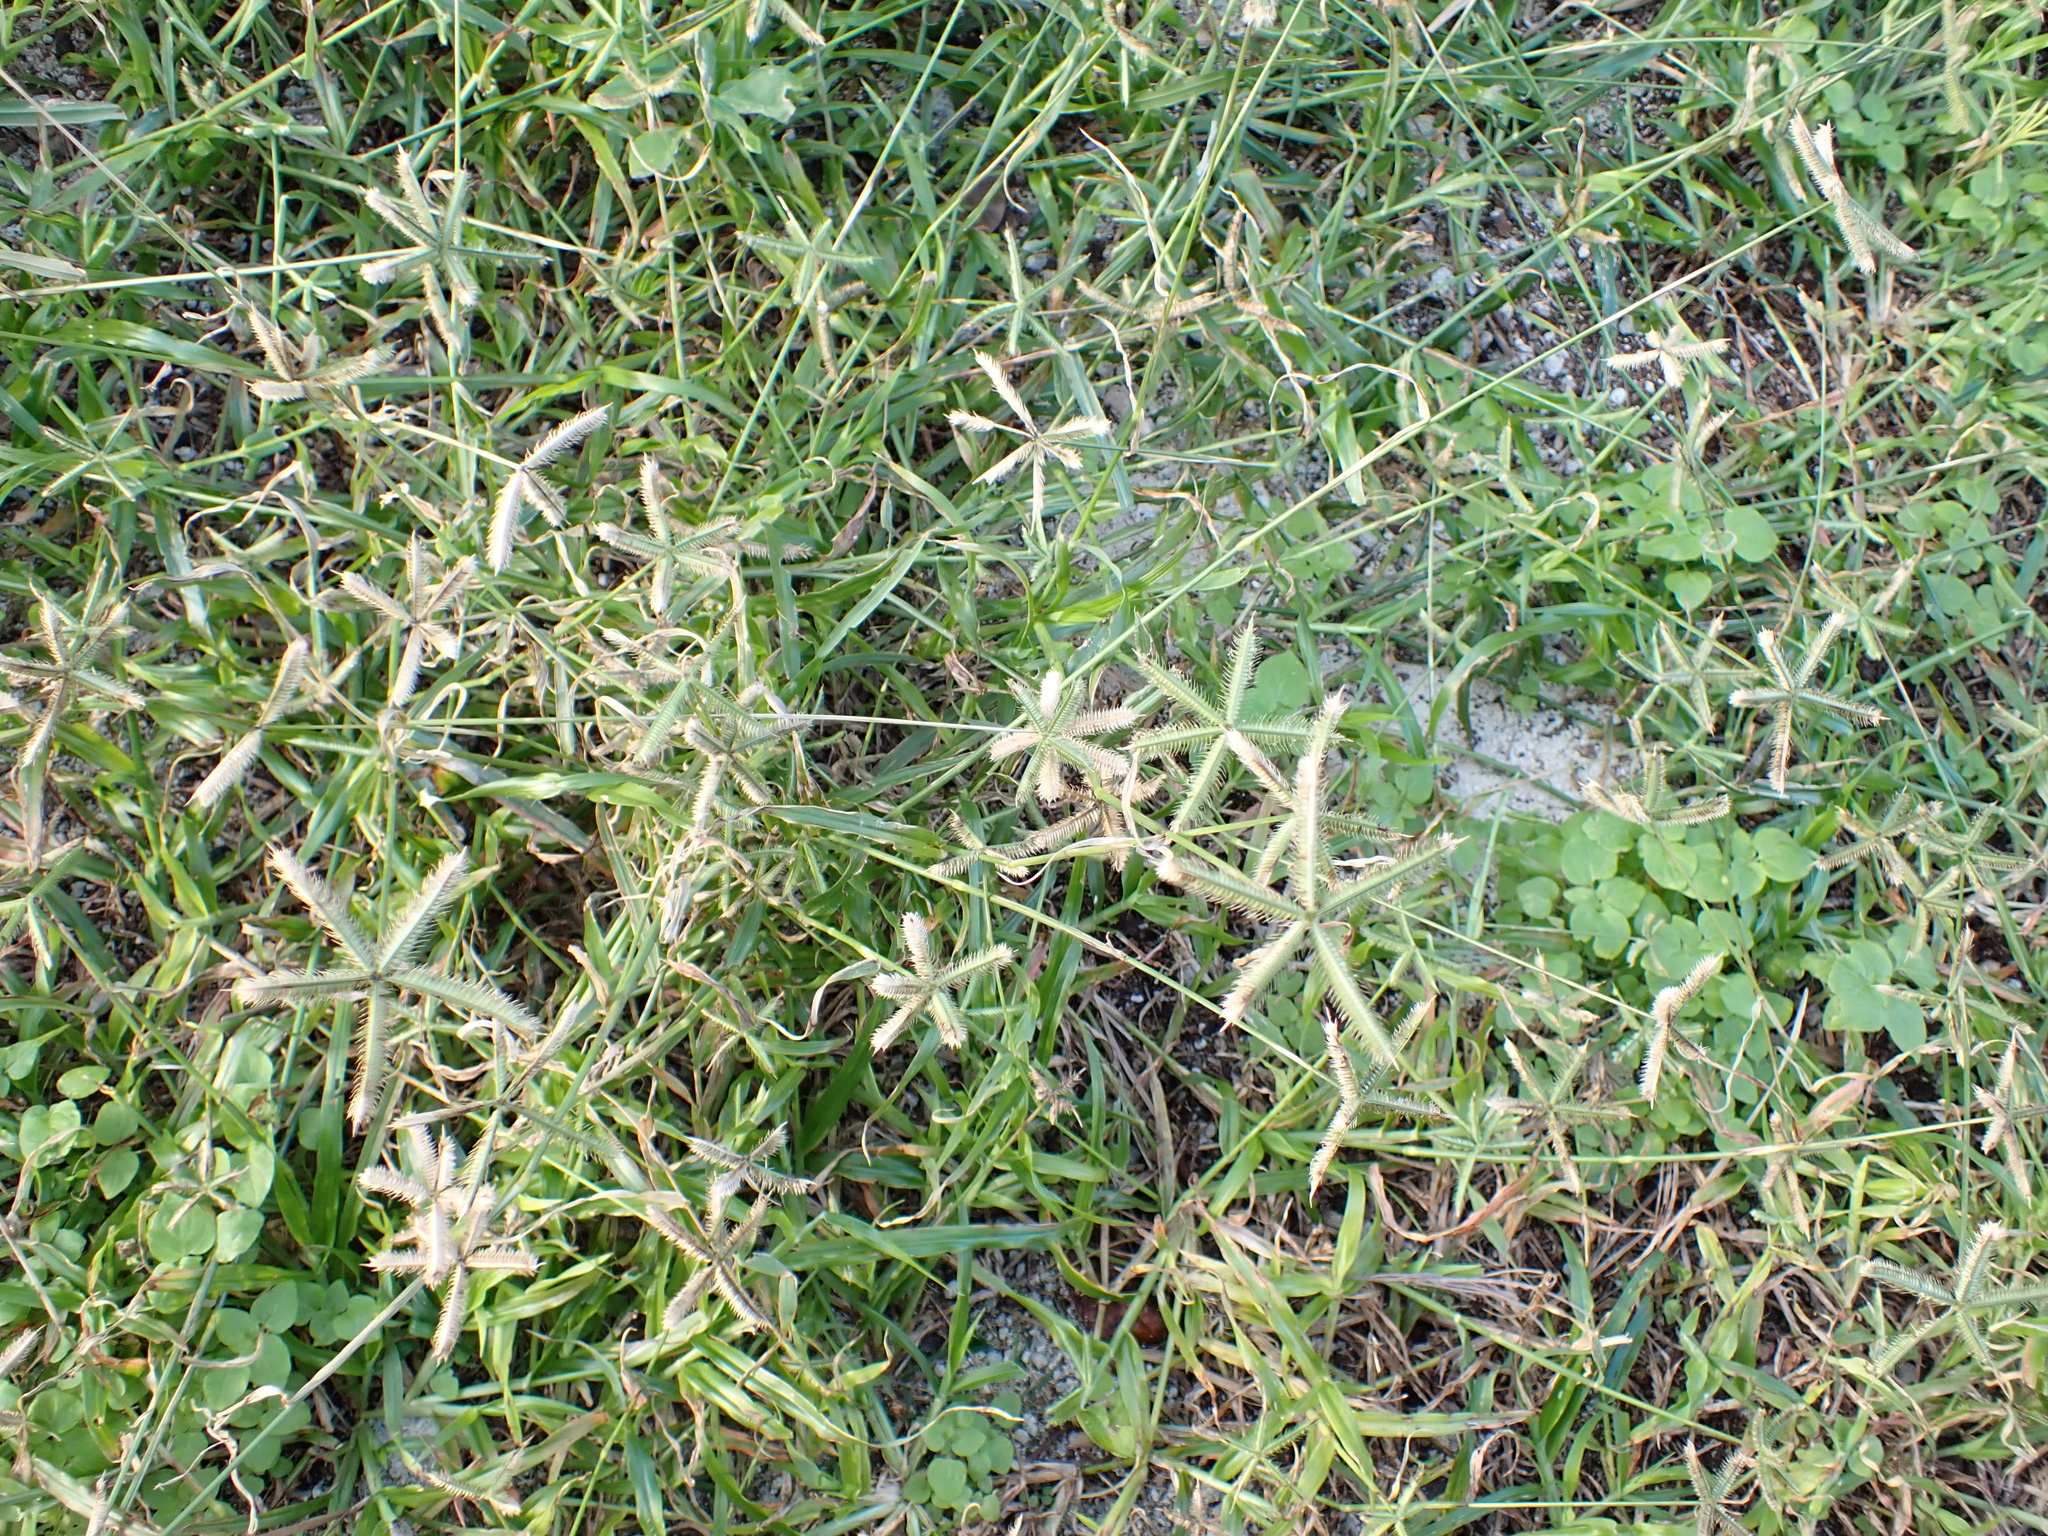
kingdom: Plantae
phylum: Tracheophyta
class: Liliopsida
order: Poales
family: Poaceae
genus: Dactyloctenium
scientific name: Dactyloctenium aegyptium
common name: Egyptian grass
